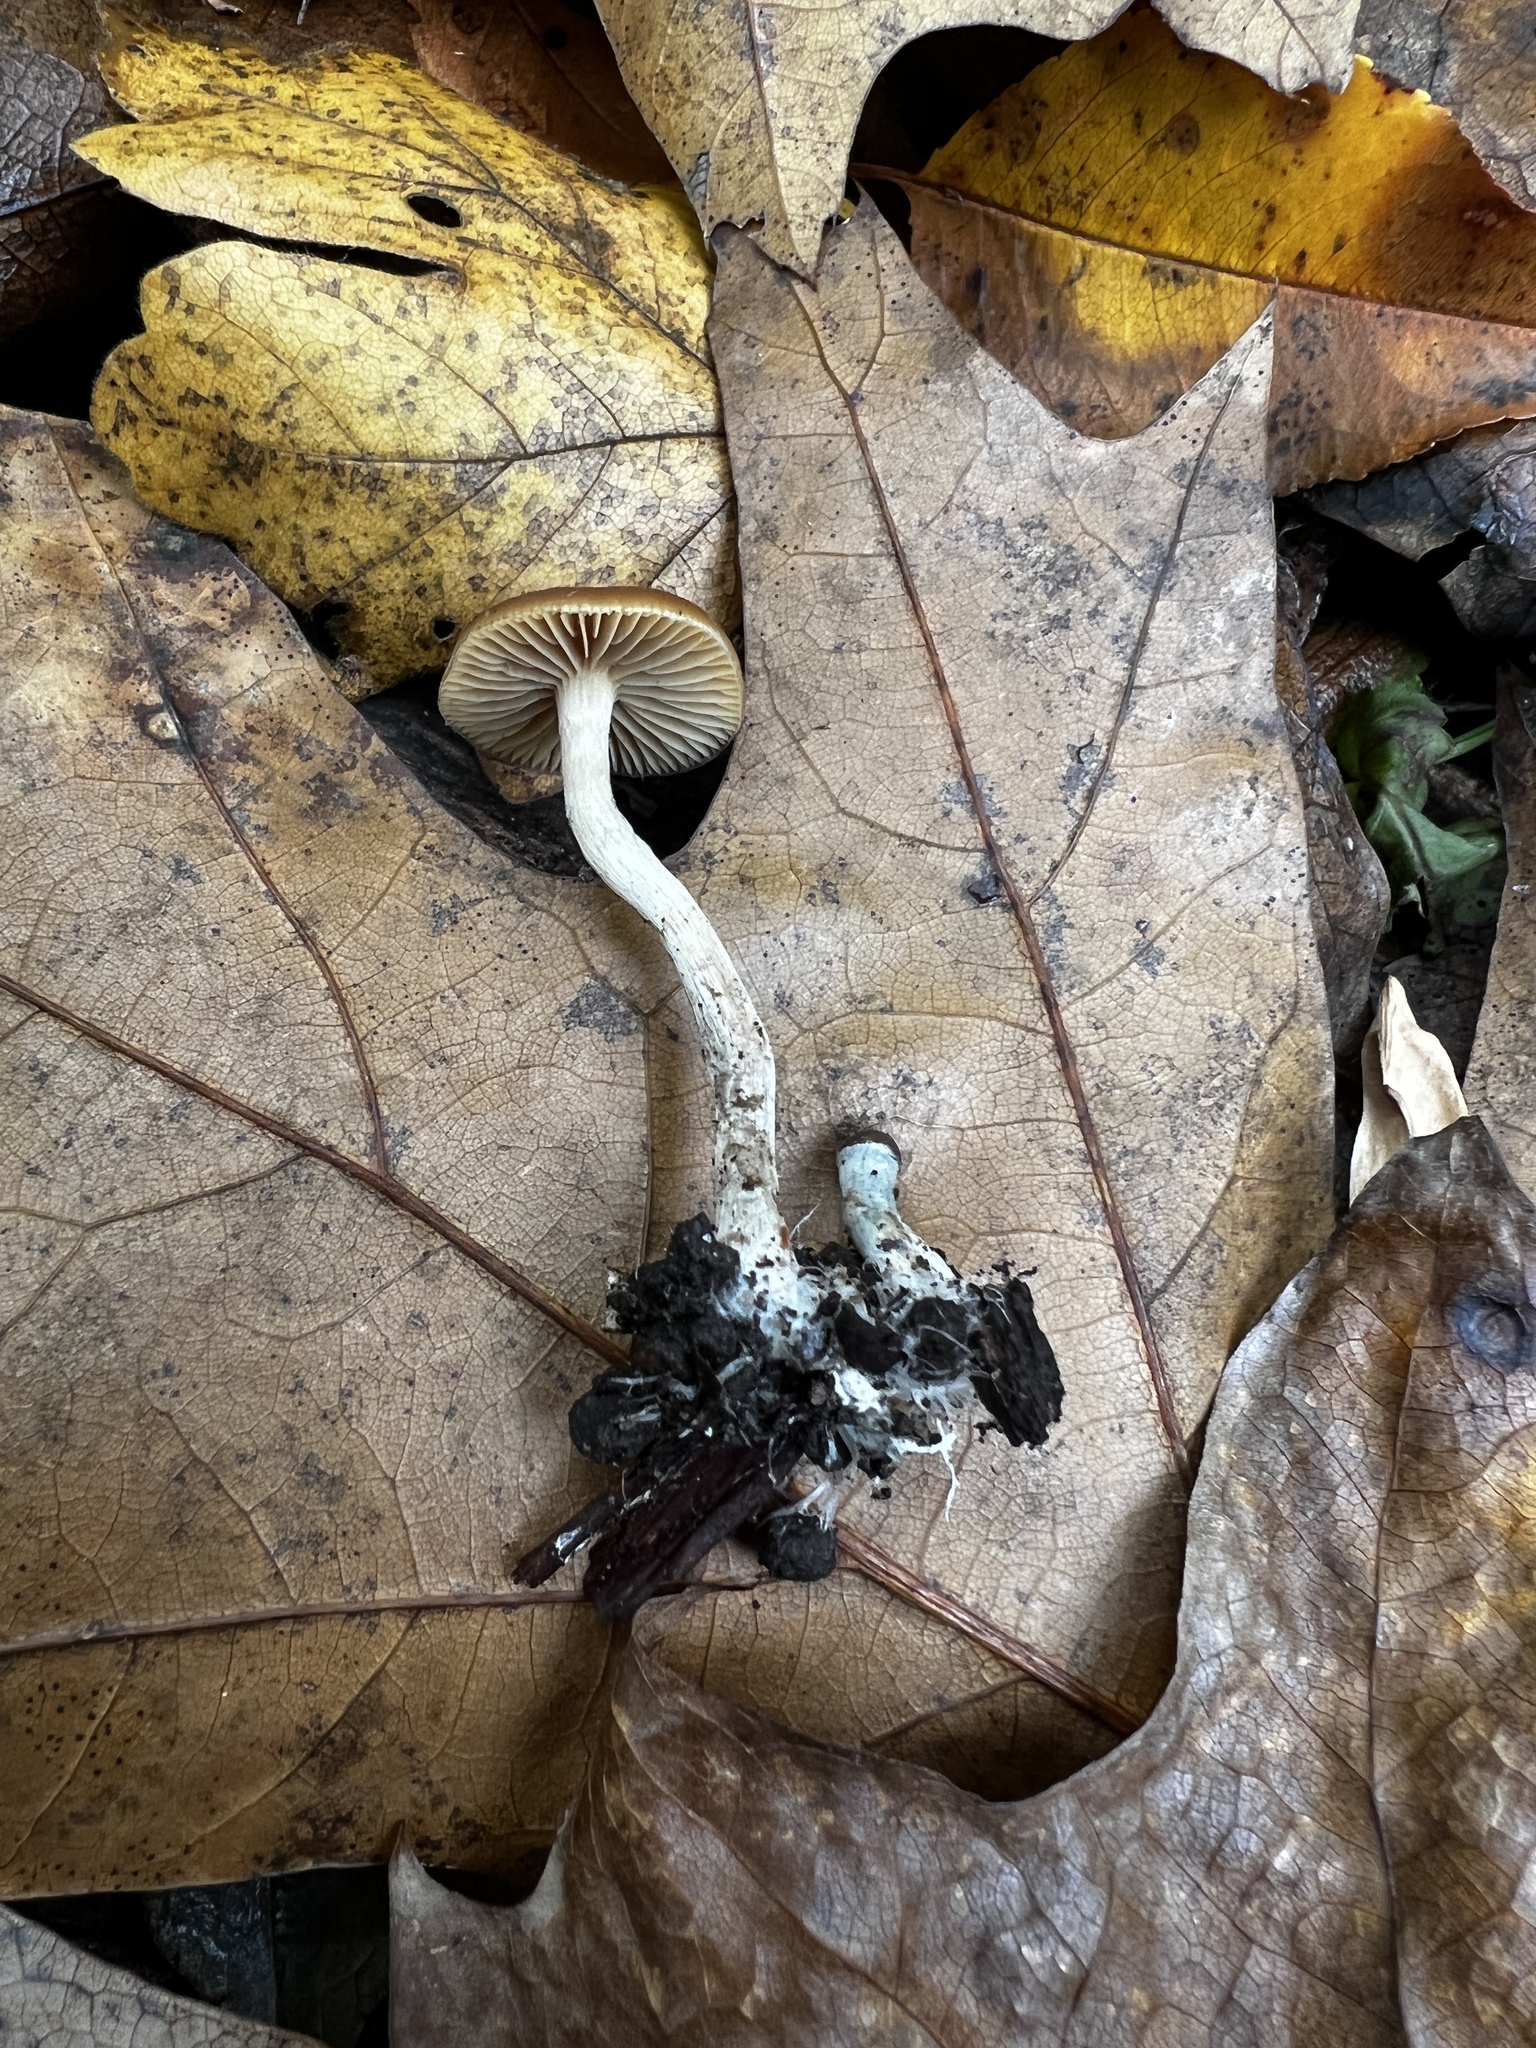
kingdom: Fungi
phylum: Basidiomycota
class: Agaricomycetes
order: Agaricales
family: Hymenogastraceae
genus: Psilocybe
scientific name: Psilocybe cyanescens
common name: Blueleg brownie
